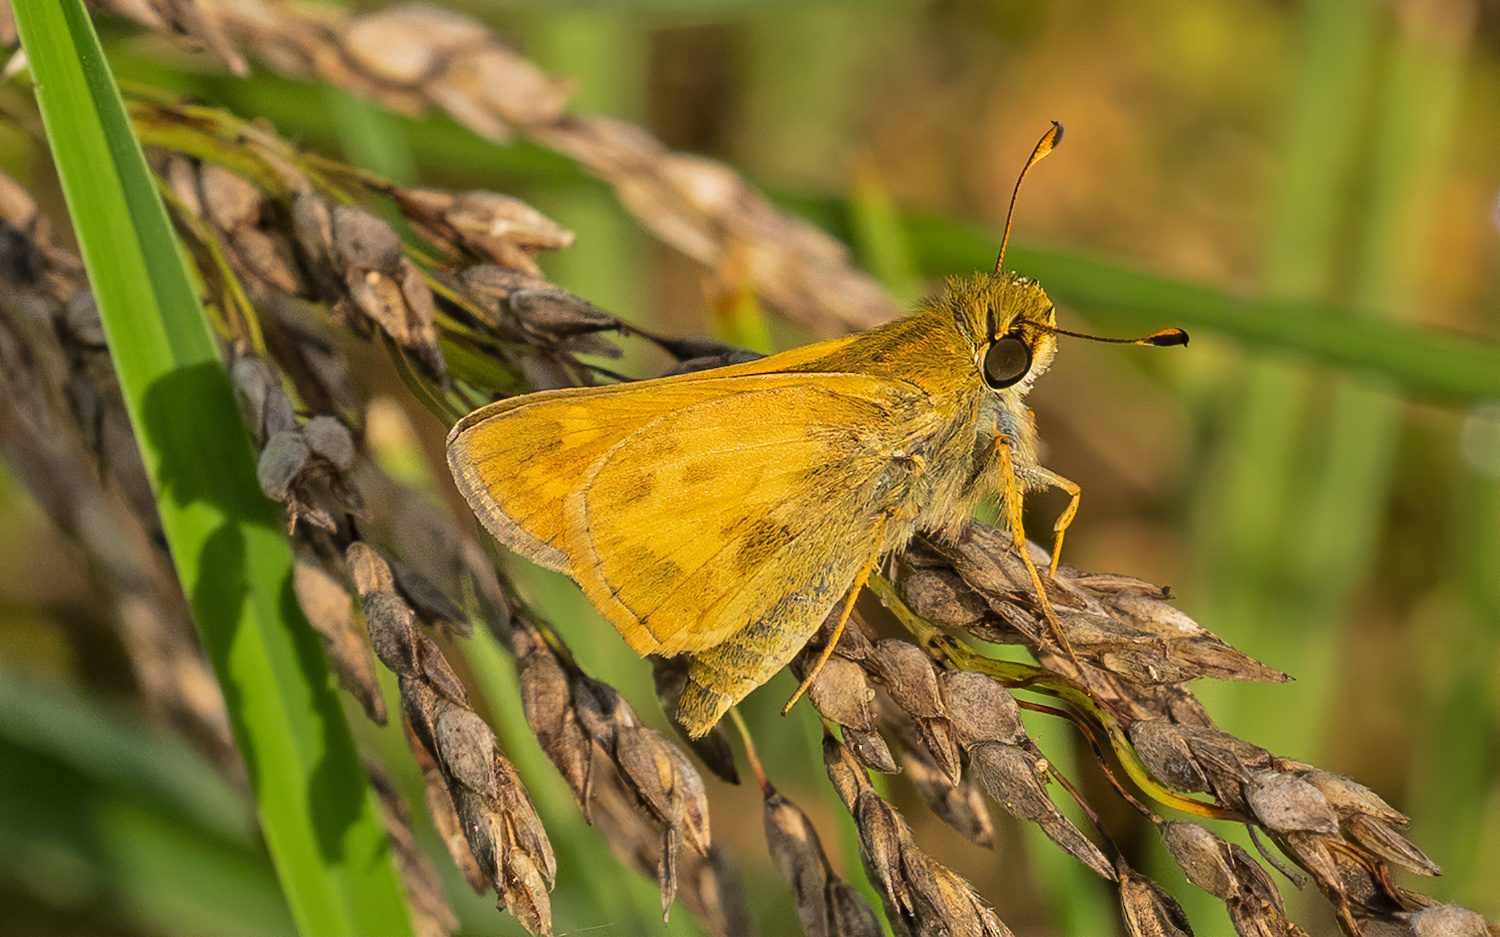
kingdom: Animalia
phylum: Arthropoda
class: Insecta
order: Lepidoptera
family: Hesperiidae
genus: Atalopedes
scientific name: Atalopedes
